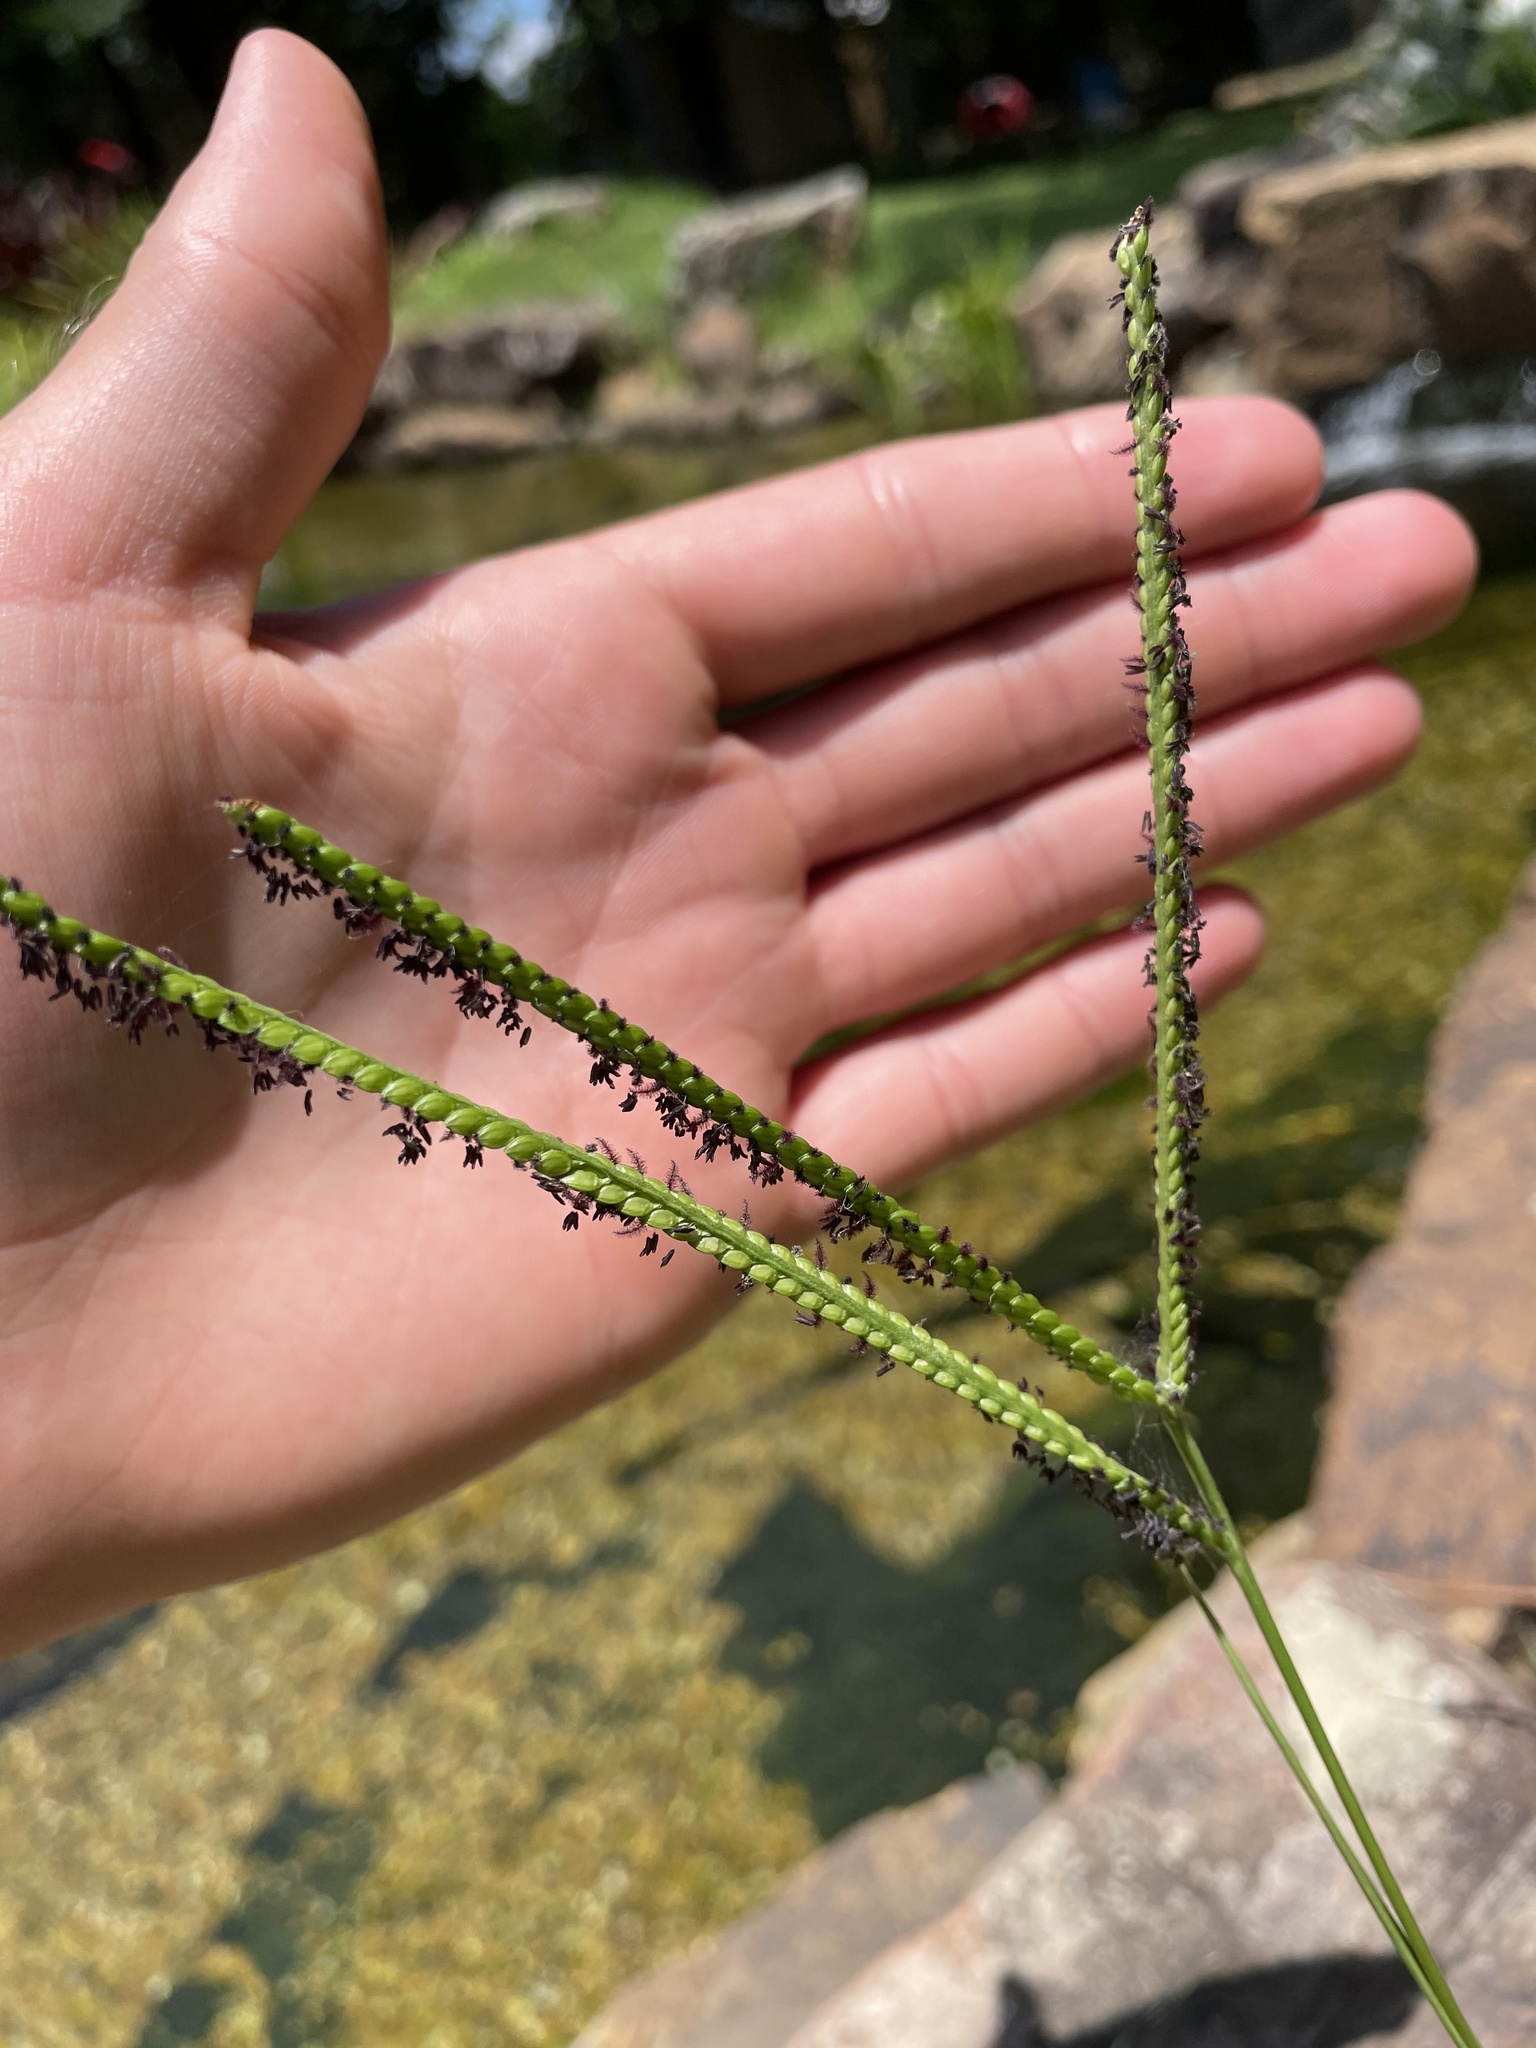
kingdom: Plantae
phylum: Tracheophyta
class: Liliopsida
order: Poales
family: Poaceae
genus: Paspalum
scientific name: Paspalum notatum
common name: Bahiagrass
